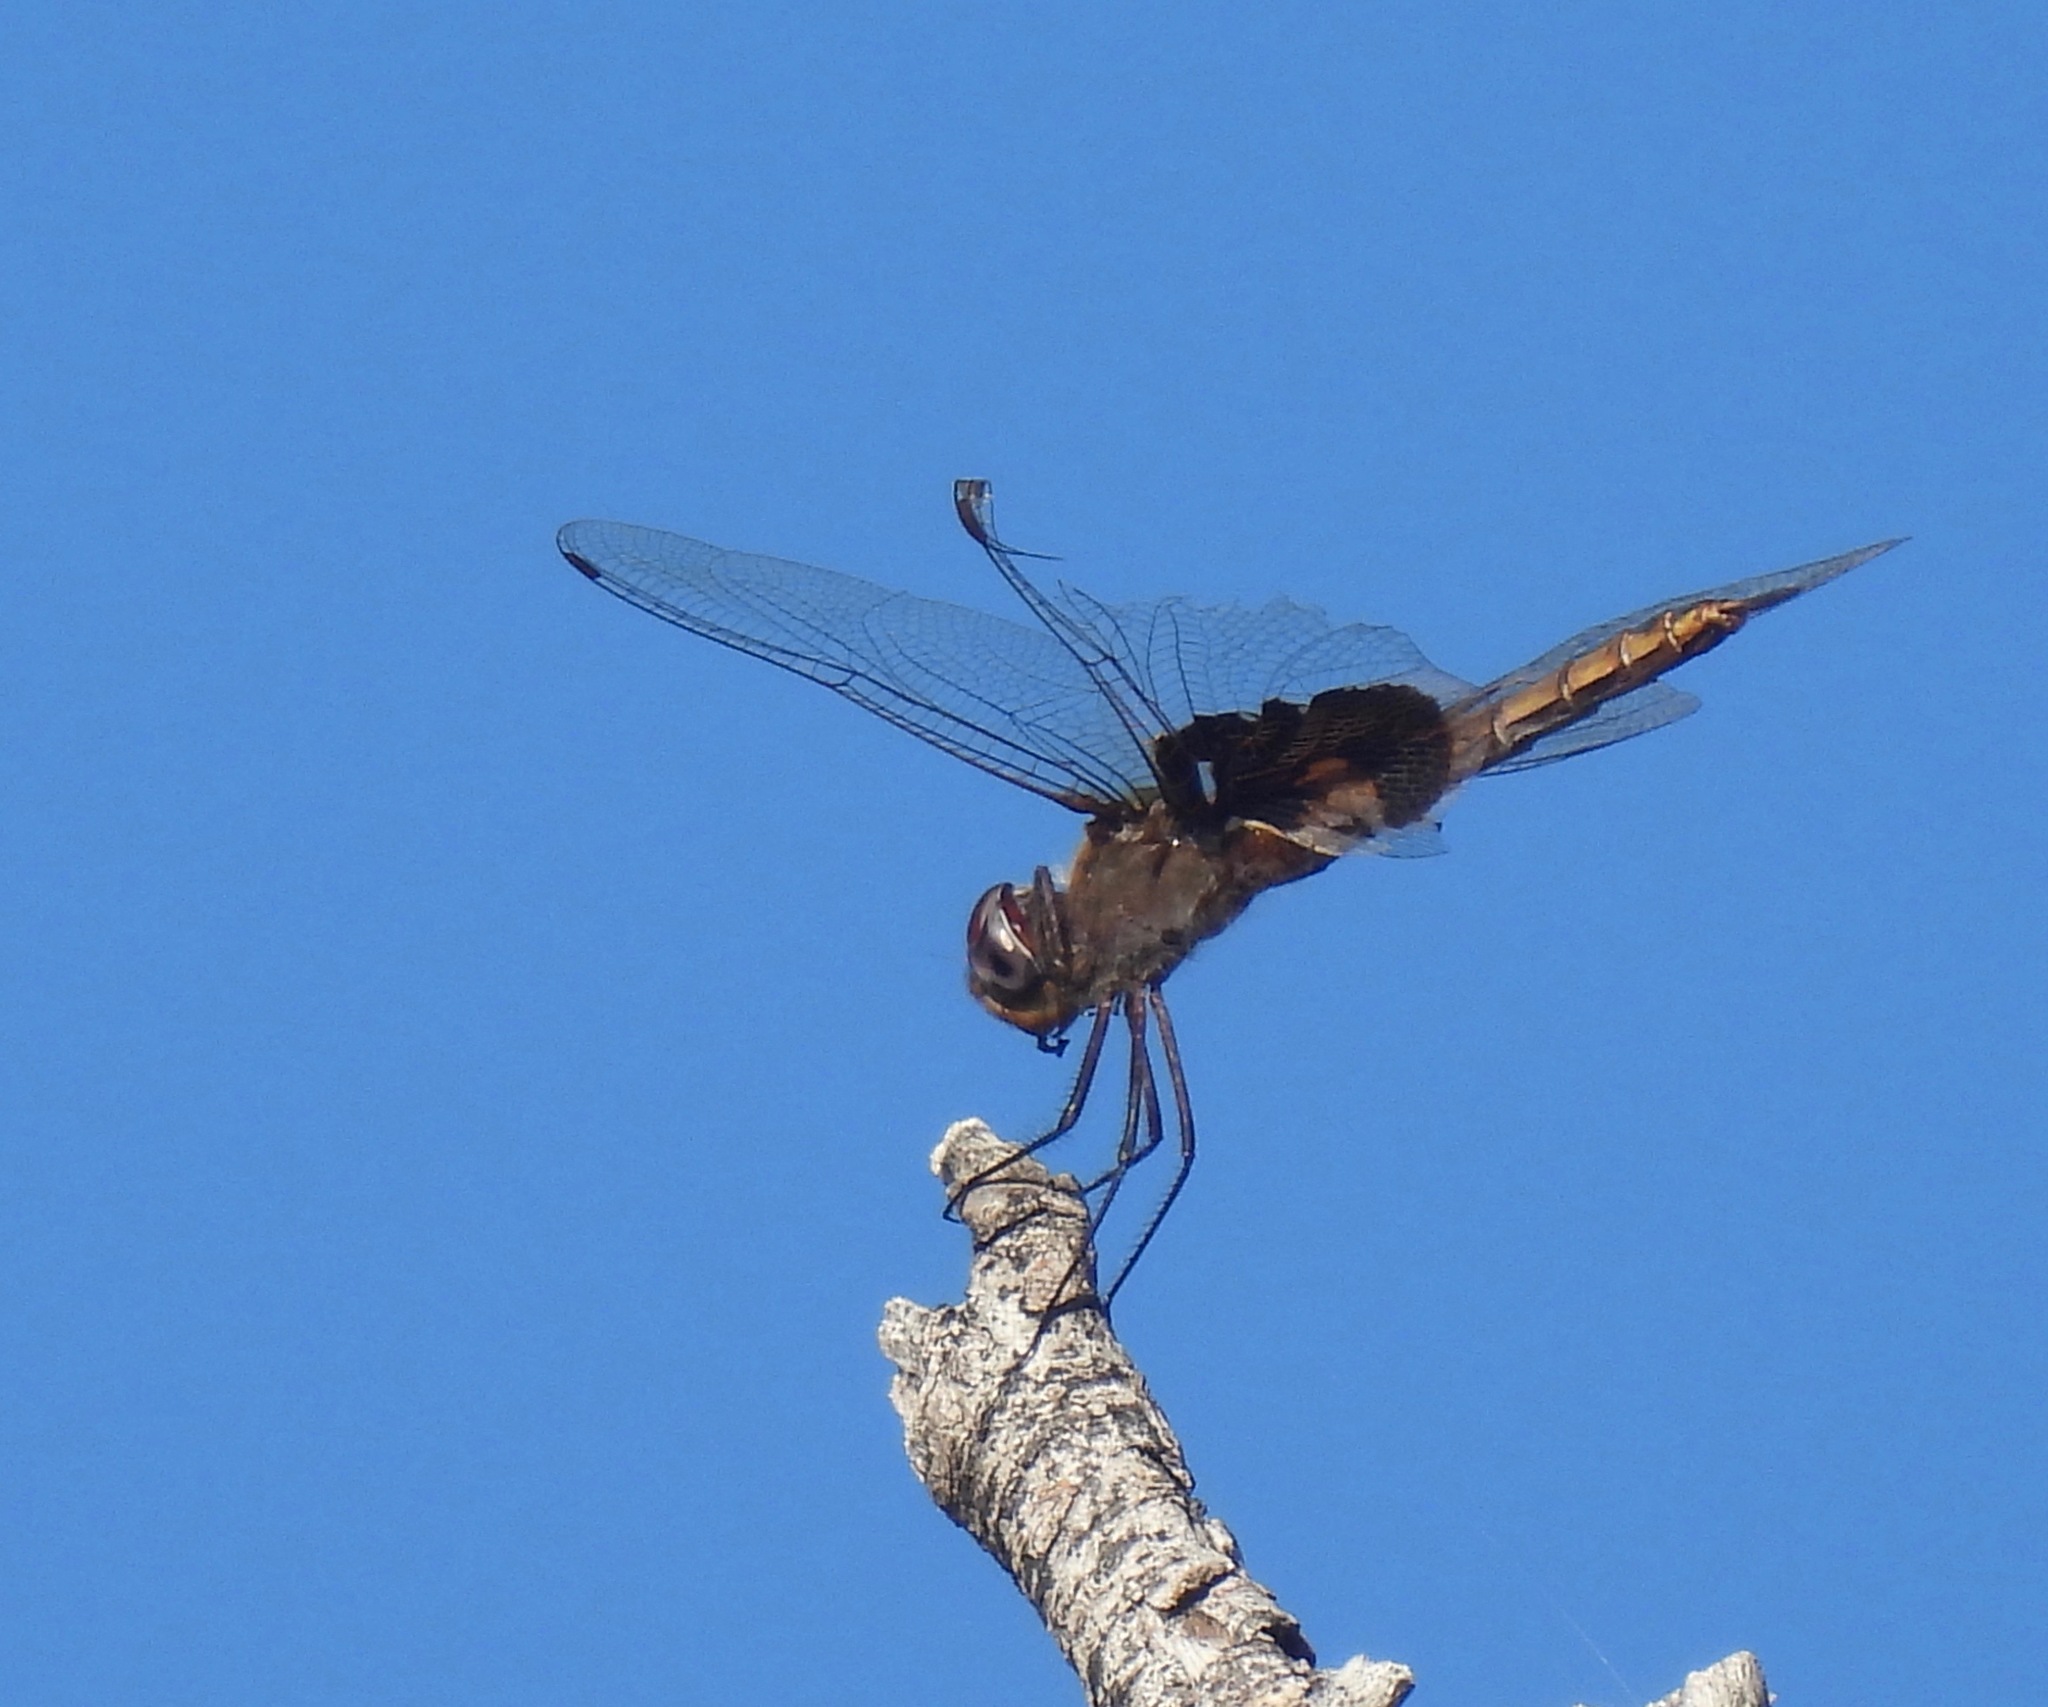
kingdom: Animalia
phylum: Arthropoda
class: Insecta
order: Odonata
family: Libellulidae
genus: Tramea
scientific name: Tramea onusta
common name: Red saddlebags
